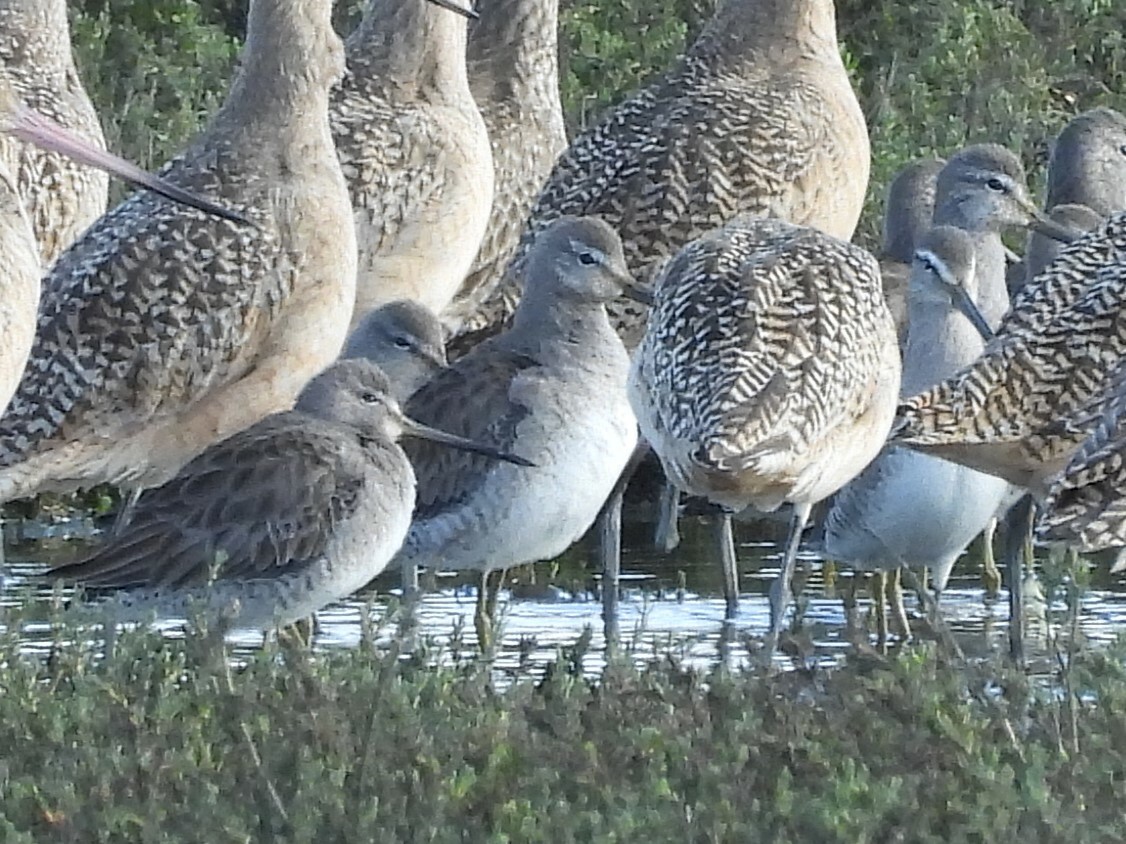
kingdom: Animalia
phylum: Chordata
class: Aves
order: Charadriiformes
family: Scolopacidae
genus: Limnodromus
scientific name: Limnodromus scolopaceus
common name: Long-billed dowitcher
